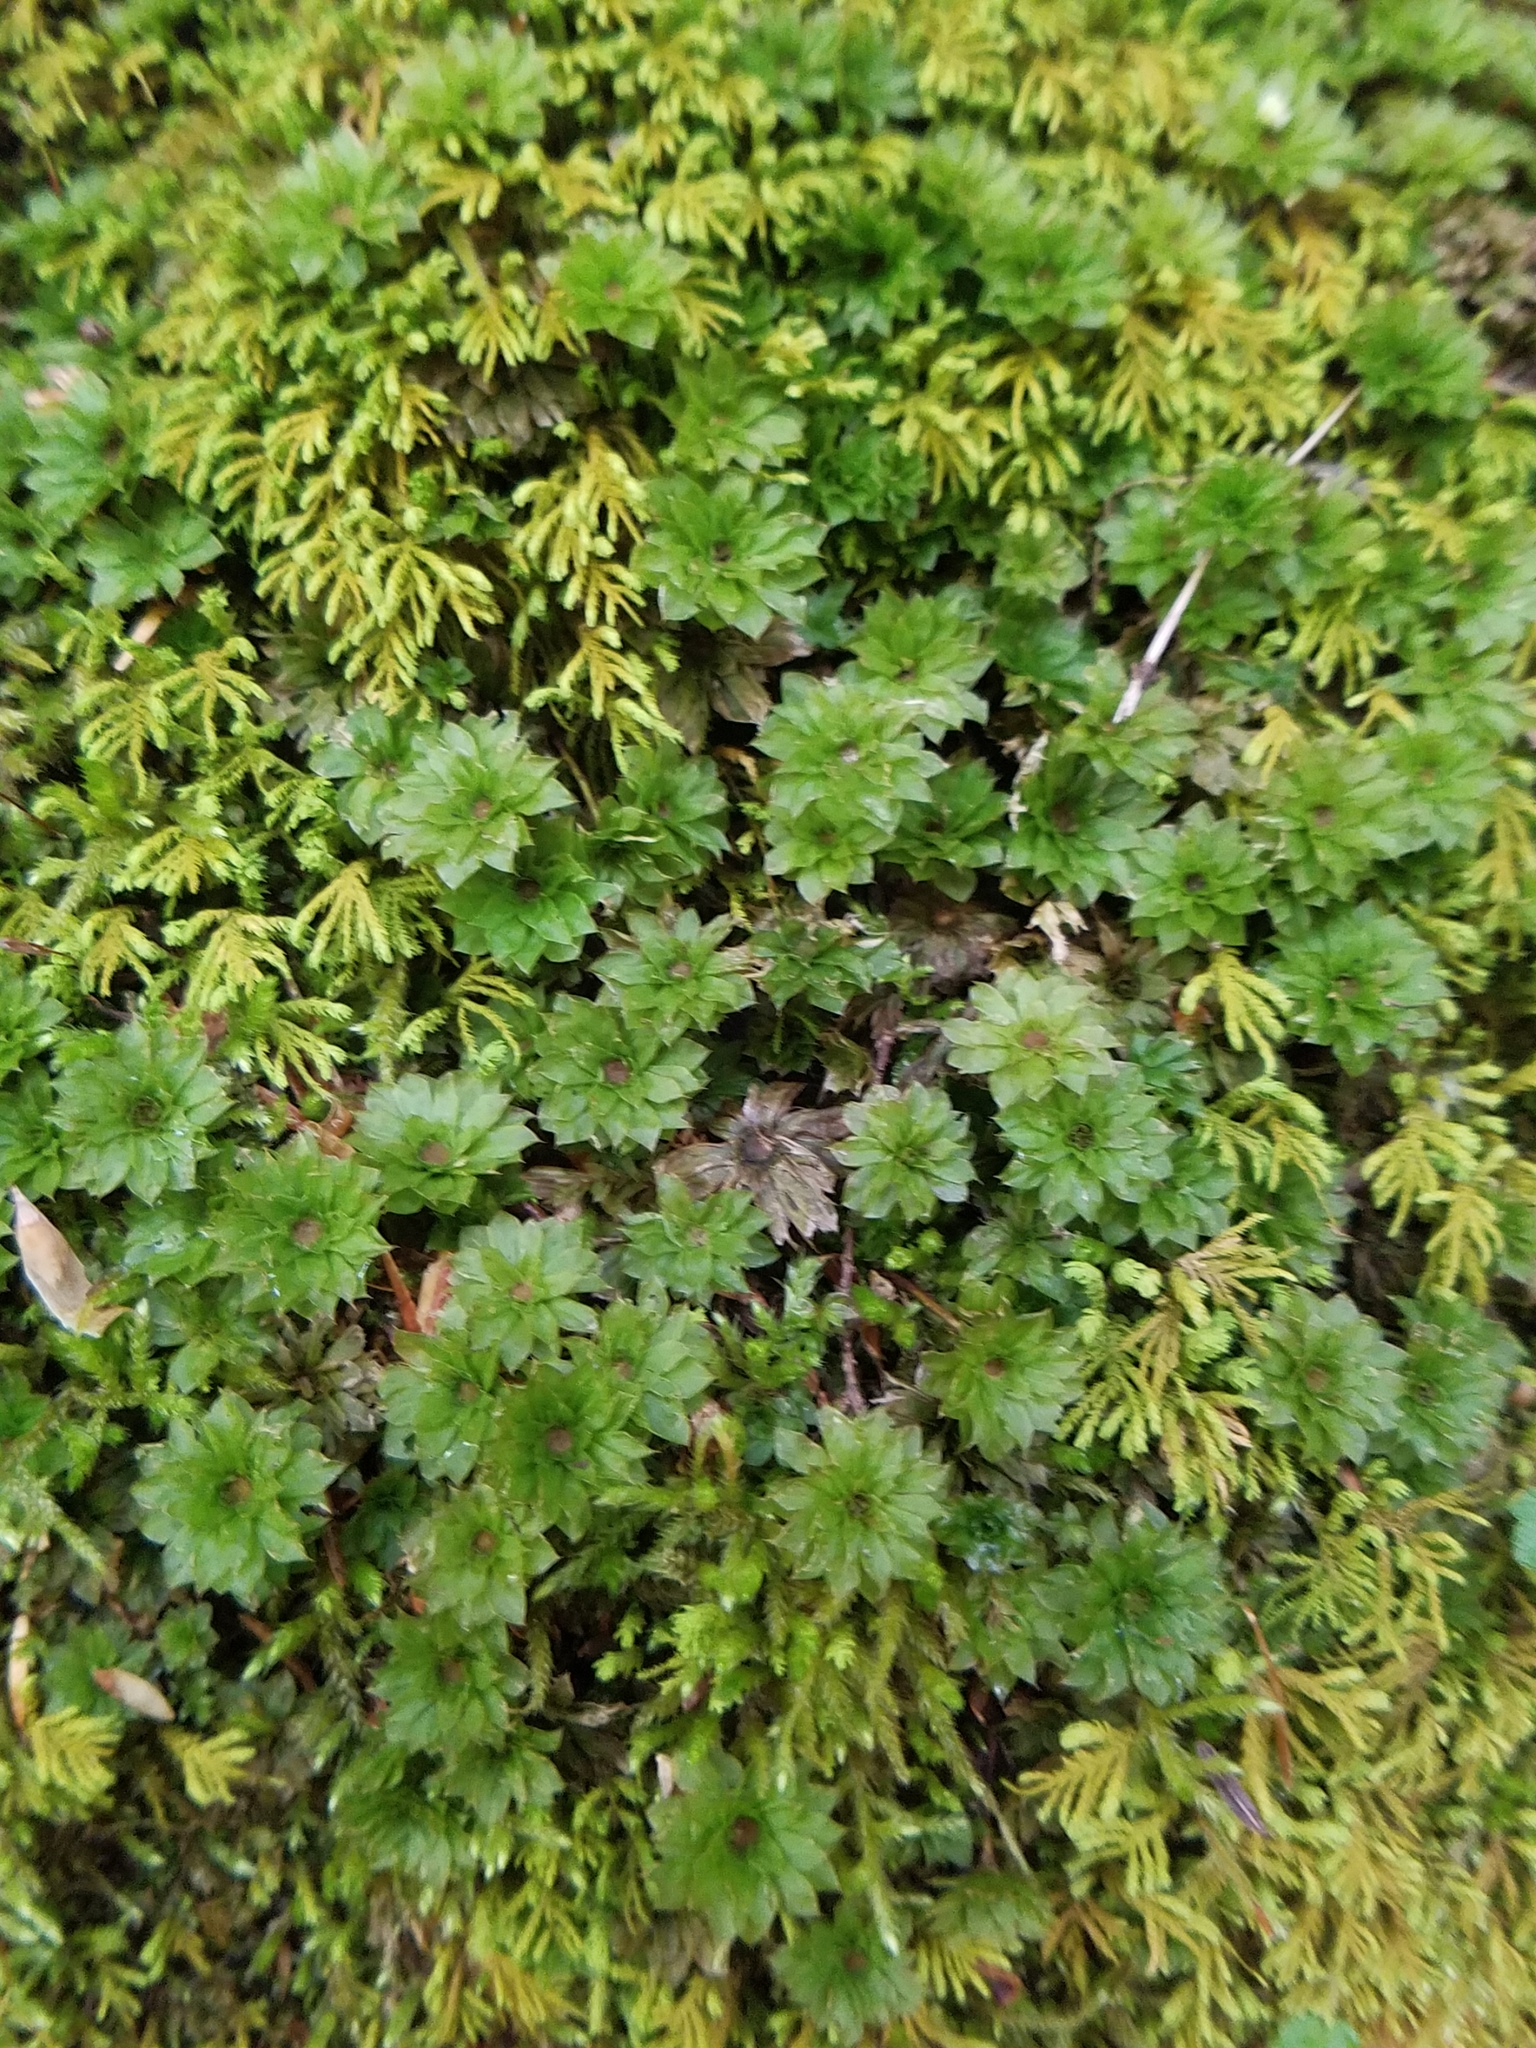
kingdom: Plantae
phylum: Bryophyta
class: Bryopsida
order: Bryales
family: Bryaceae
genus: Rhodobryum
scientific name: Rhodobryum ontariense
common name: Ontario rhodobryum moss
